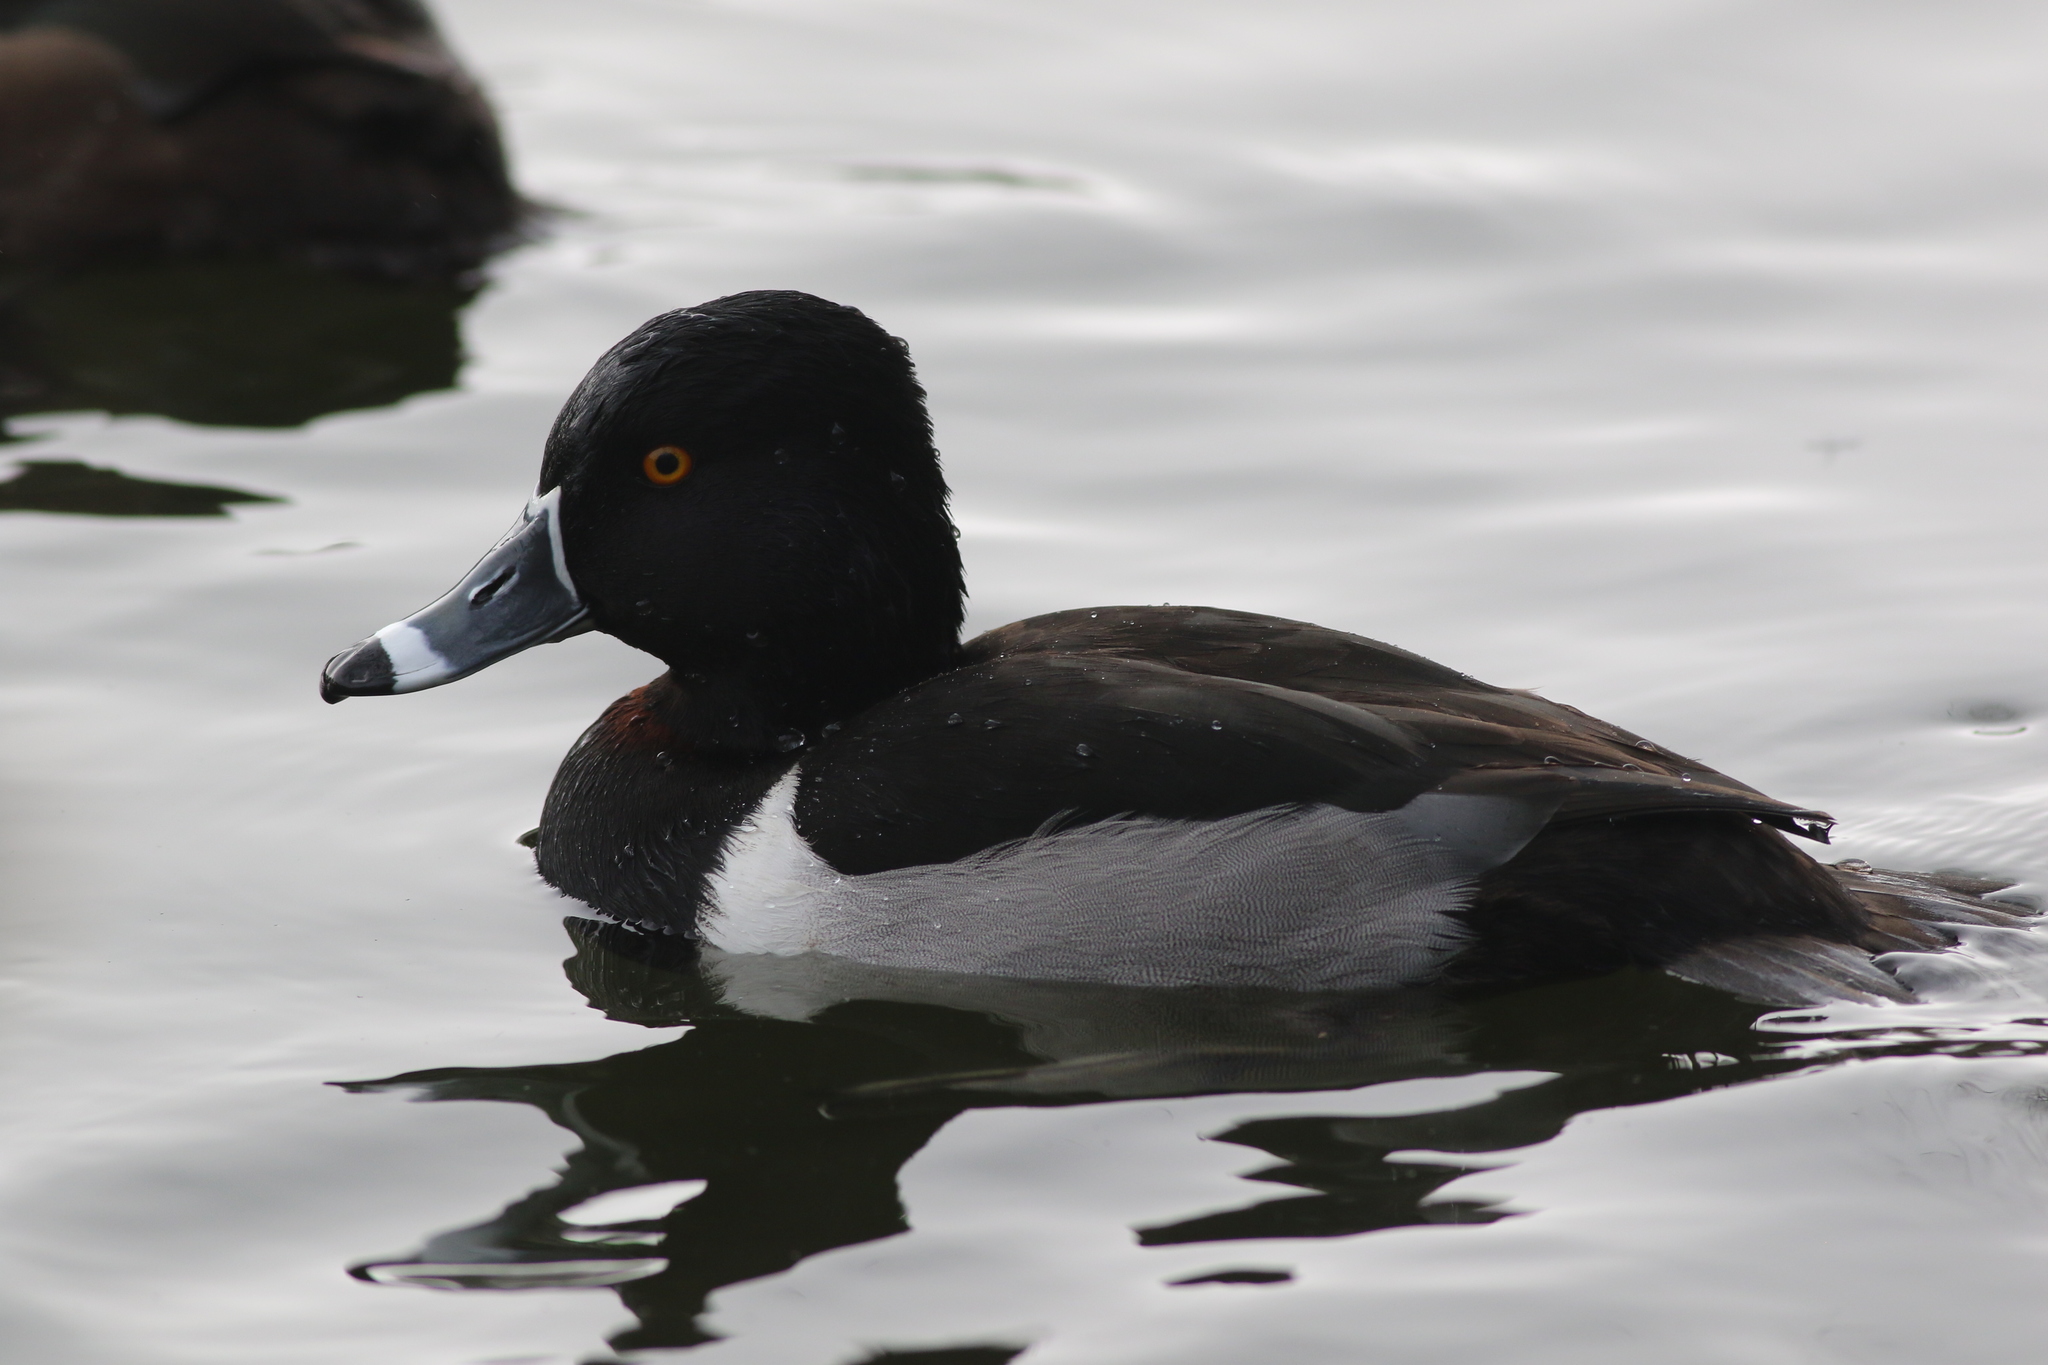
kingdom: Animalia
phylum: Chordata
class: Aves
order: Anseriformes
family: Anatidae
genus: Aythya
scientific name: Aythya collaris
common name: Ring-necked duck
